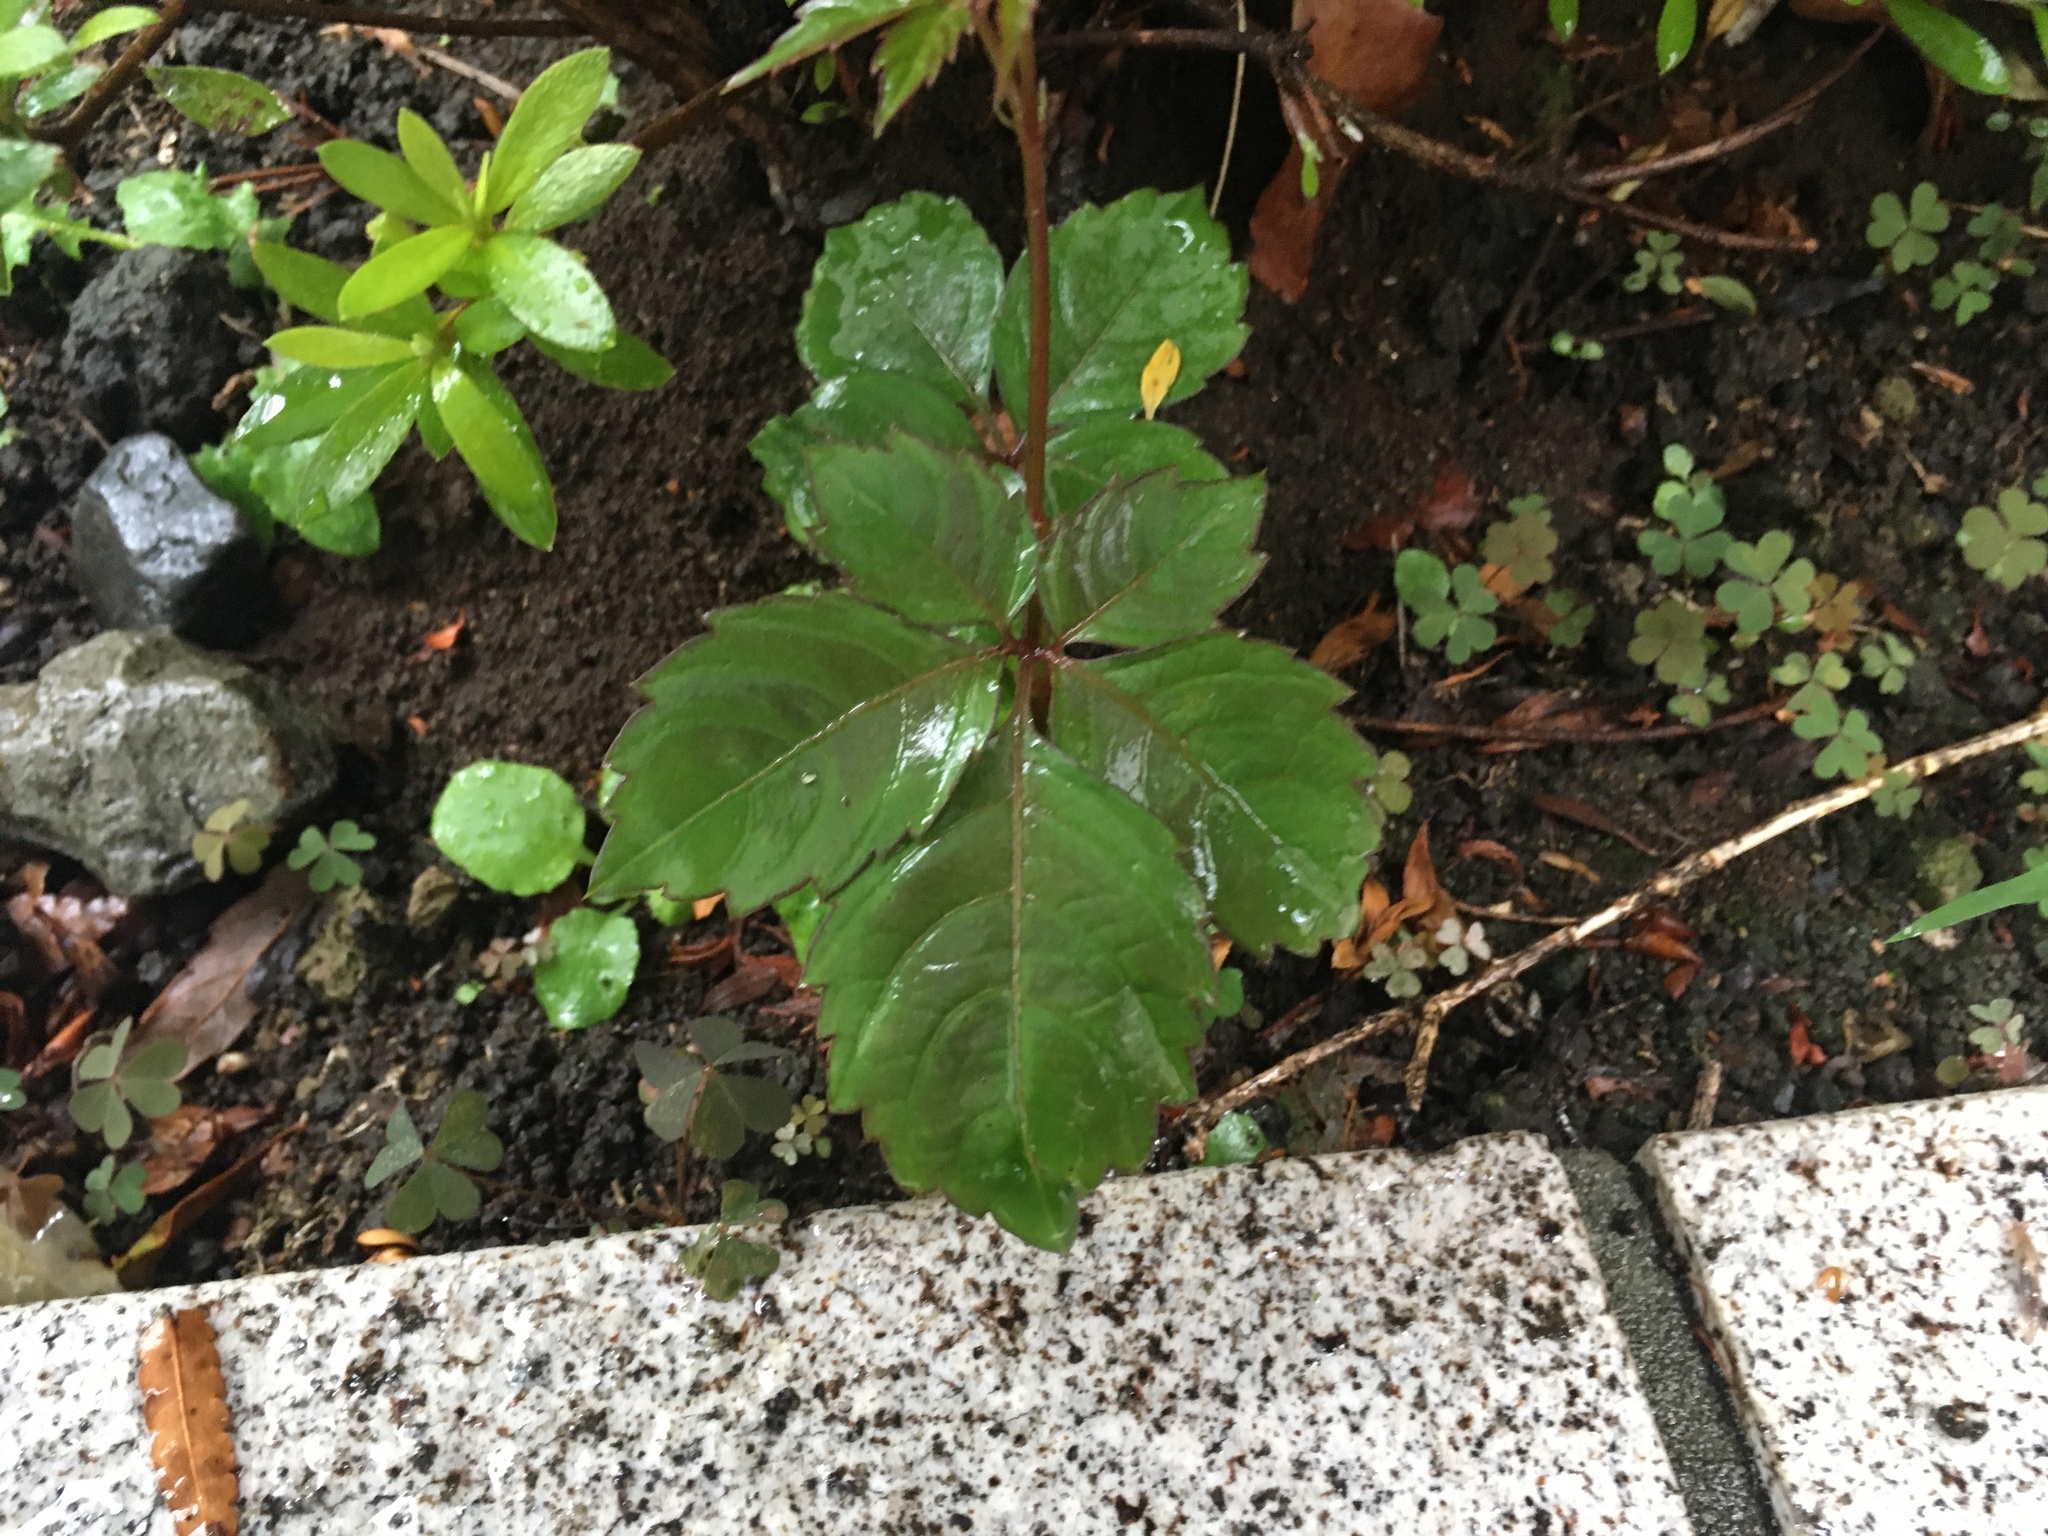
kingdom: Plantae
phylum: Tracheophyta
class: Magnoliopsida
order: Vitales
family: Vitaceae
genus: Causonis
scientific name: Causonis japonica
